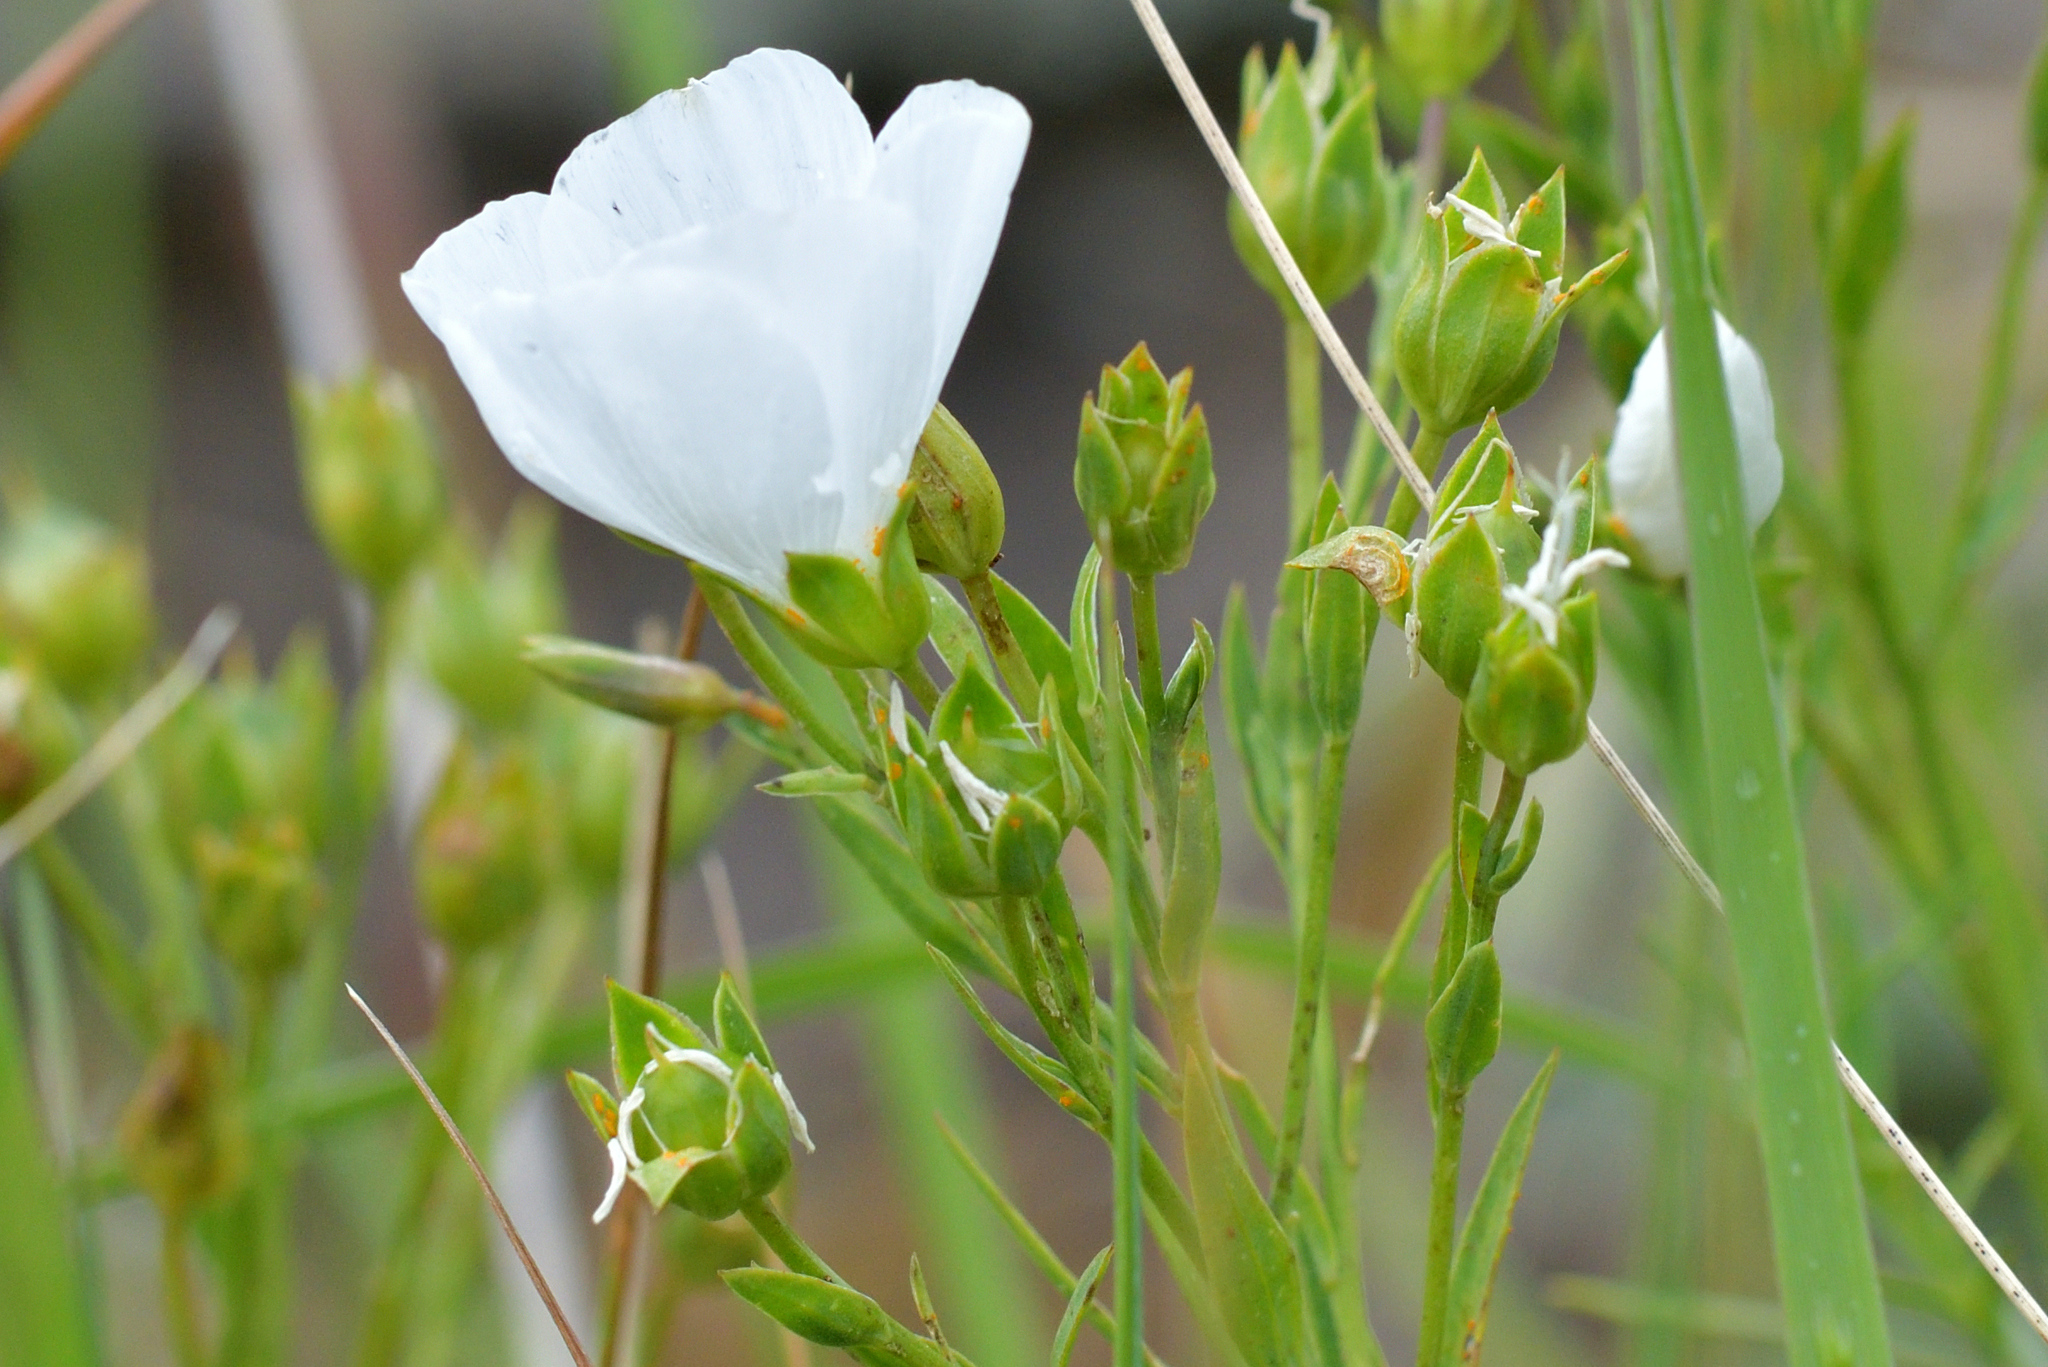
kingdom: Fungi
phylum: Basidiomycota
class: Pucciniomycetes
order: Pucciniales
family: Melampsoraceae
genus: Melampsora
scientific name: Melampsora lini
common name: Flax rust
